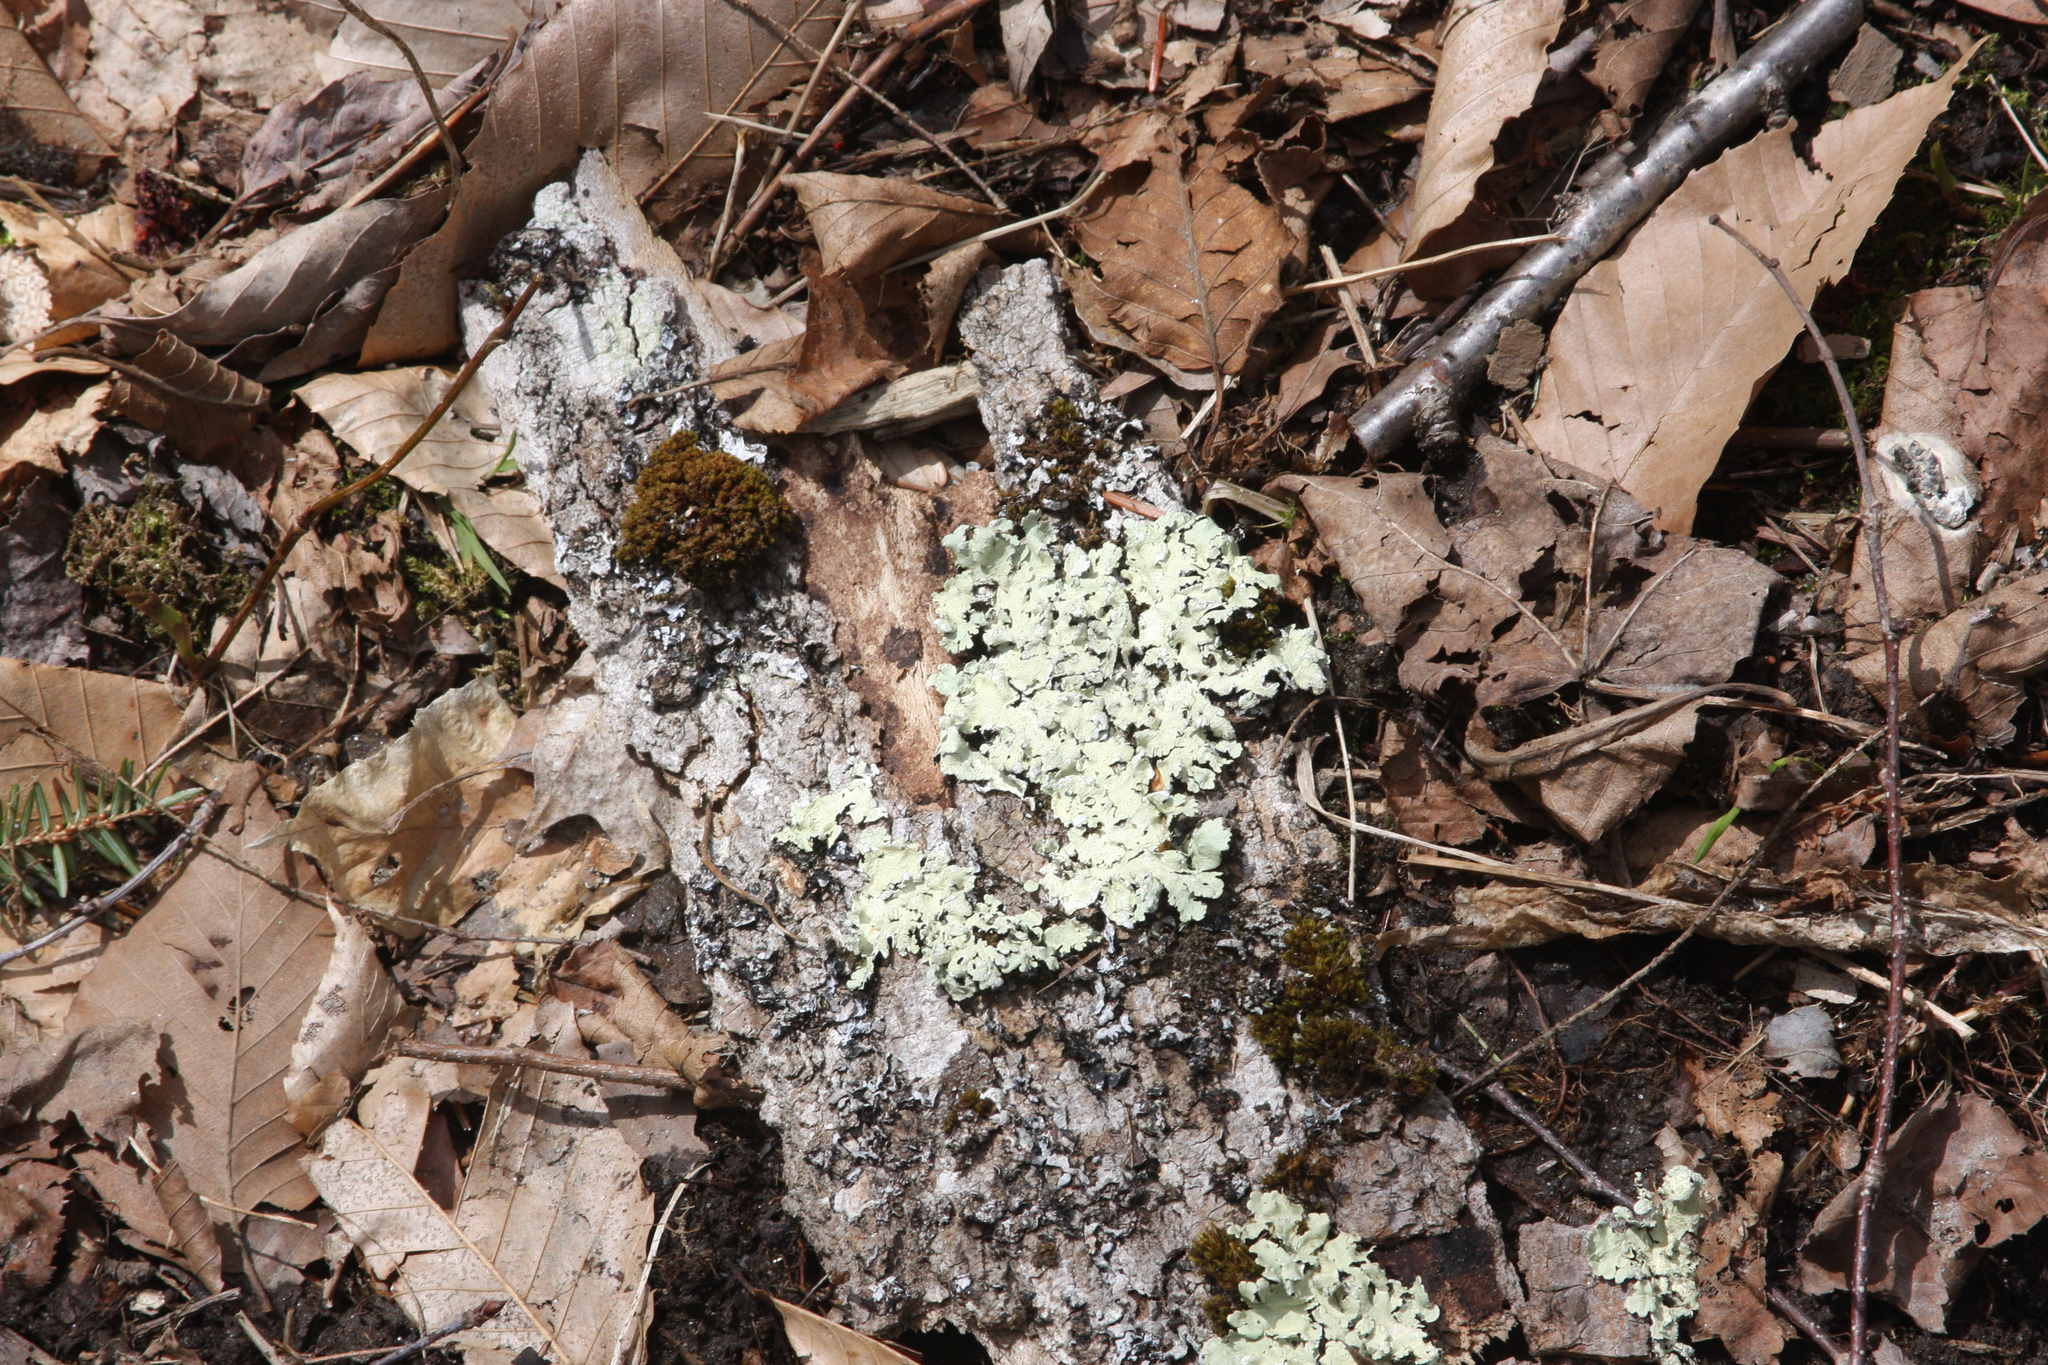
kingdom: Plantae
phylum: Bryophyta
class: Bryopsida
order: Orthotrichales
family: Orthotrichaceae
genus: Ulota
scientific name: Ulota crispa
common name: Crisped pincushion moss
